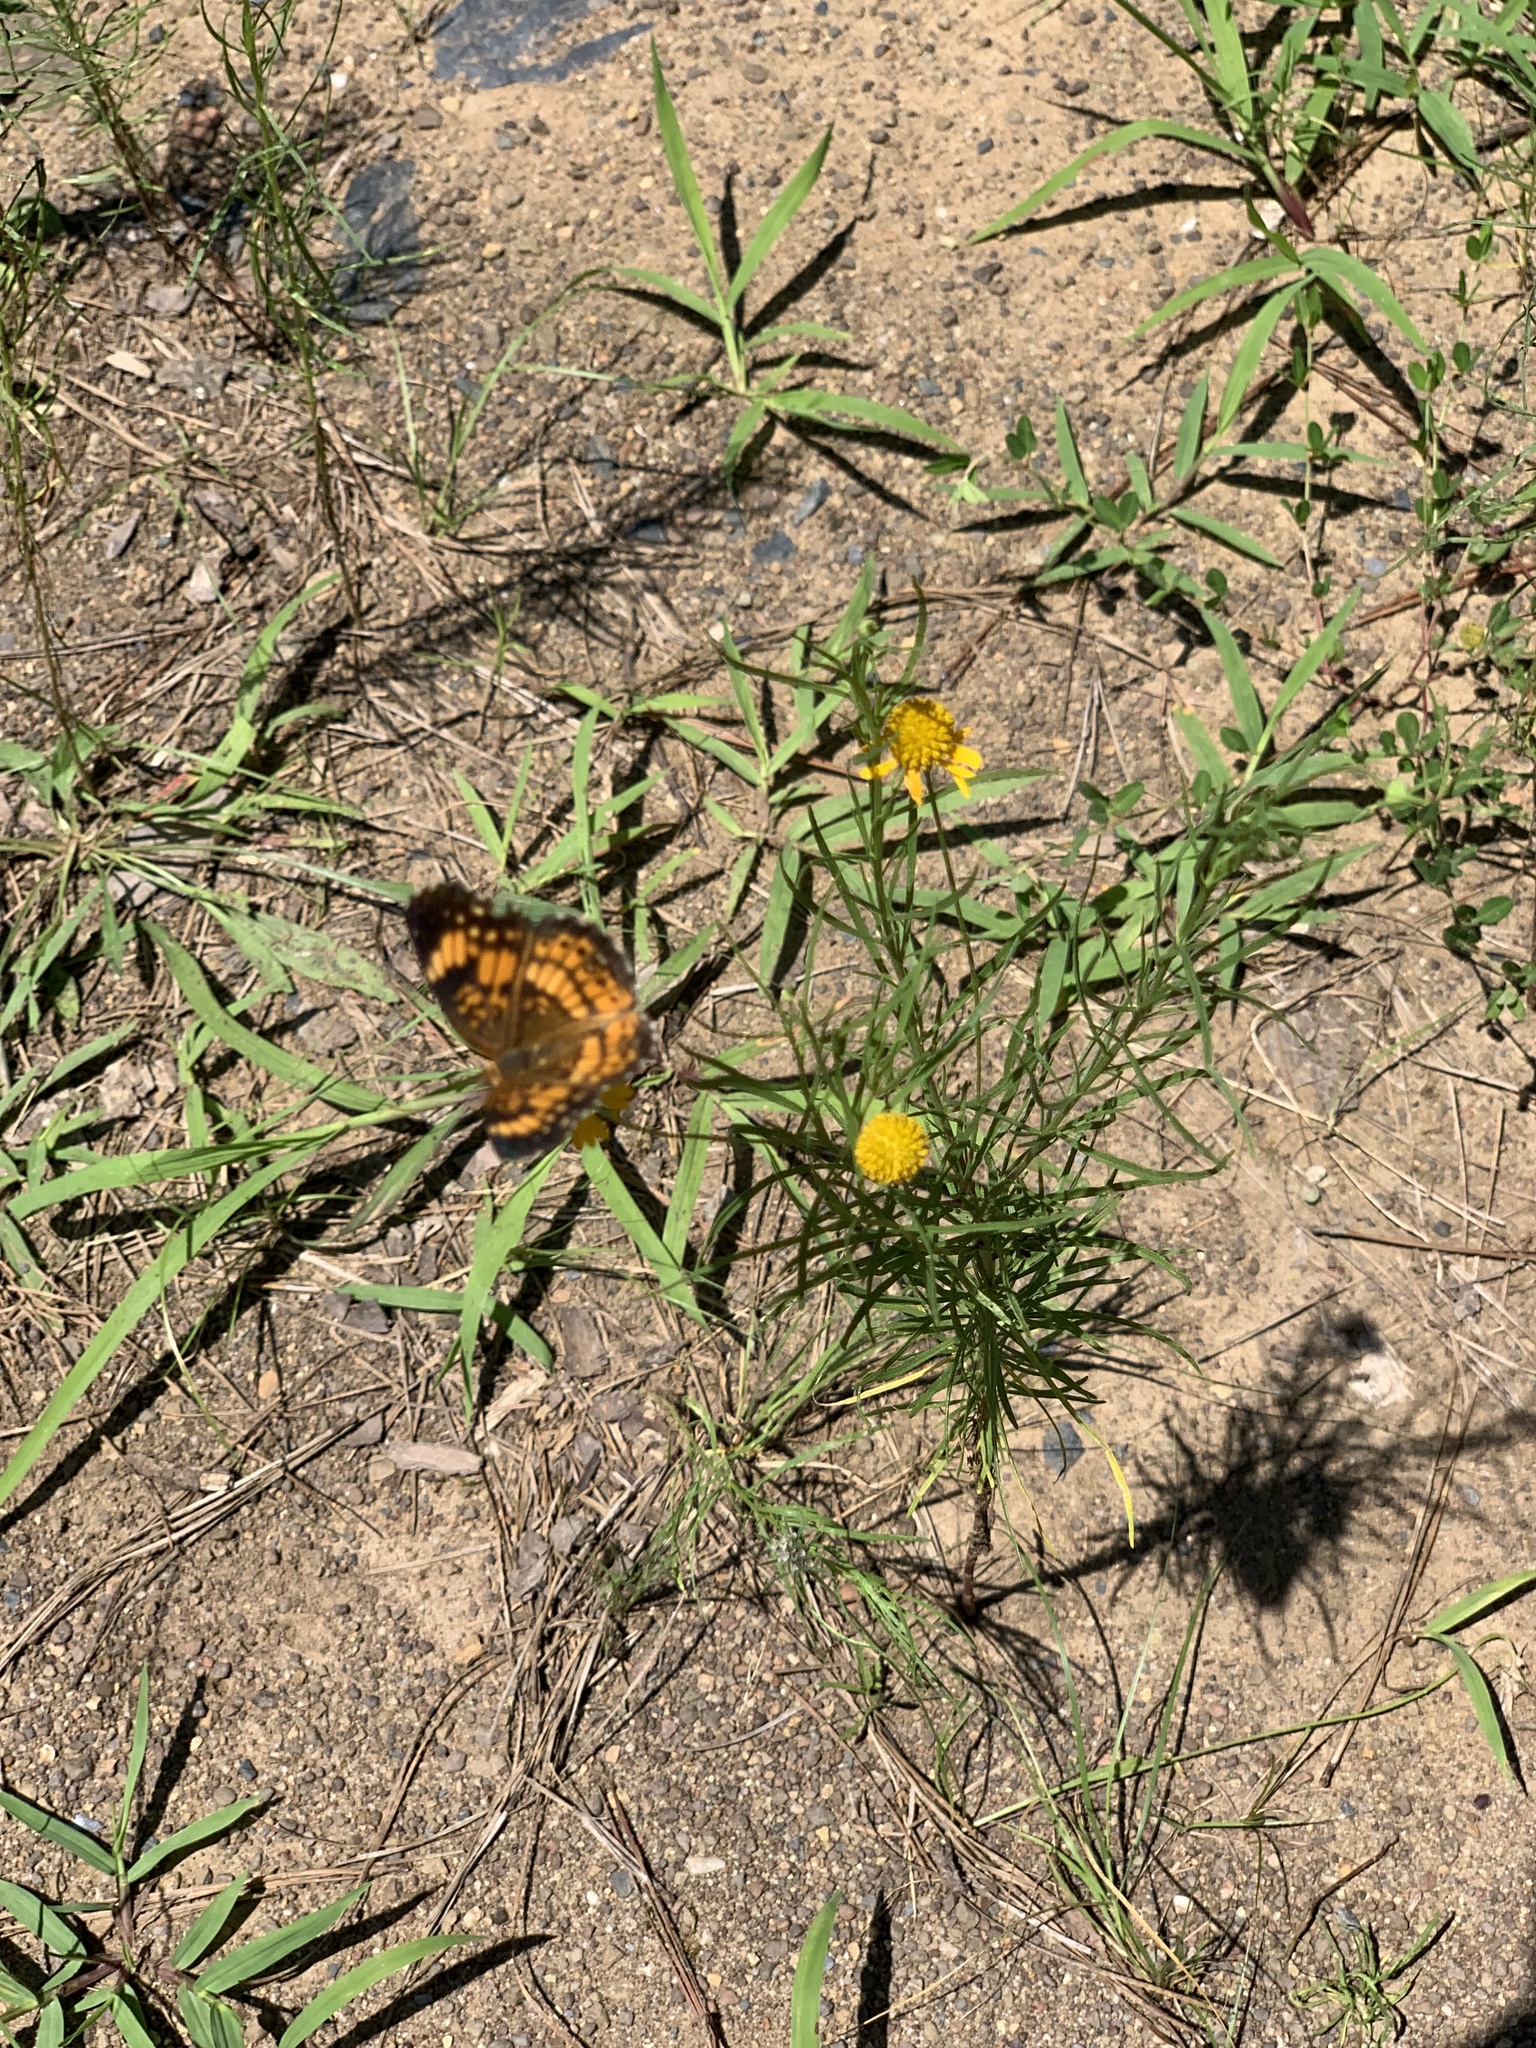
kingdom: Animalia
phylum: Arthropoda
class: Insecta
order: Lepidoptera
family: Nymphalidae
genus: Chlosyne
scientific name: Chlosyne nycteis
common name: Silvery checkerspot
